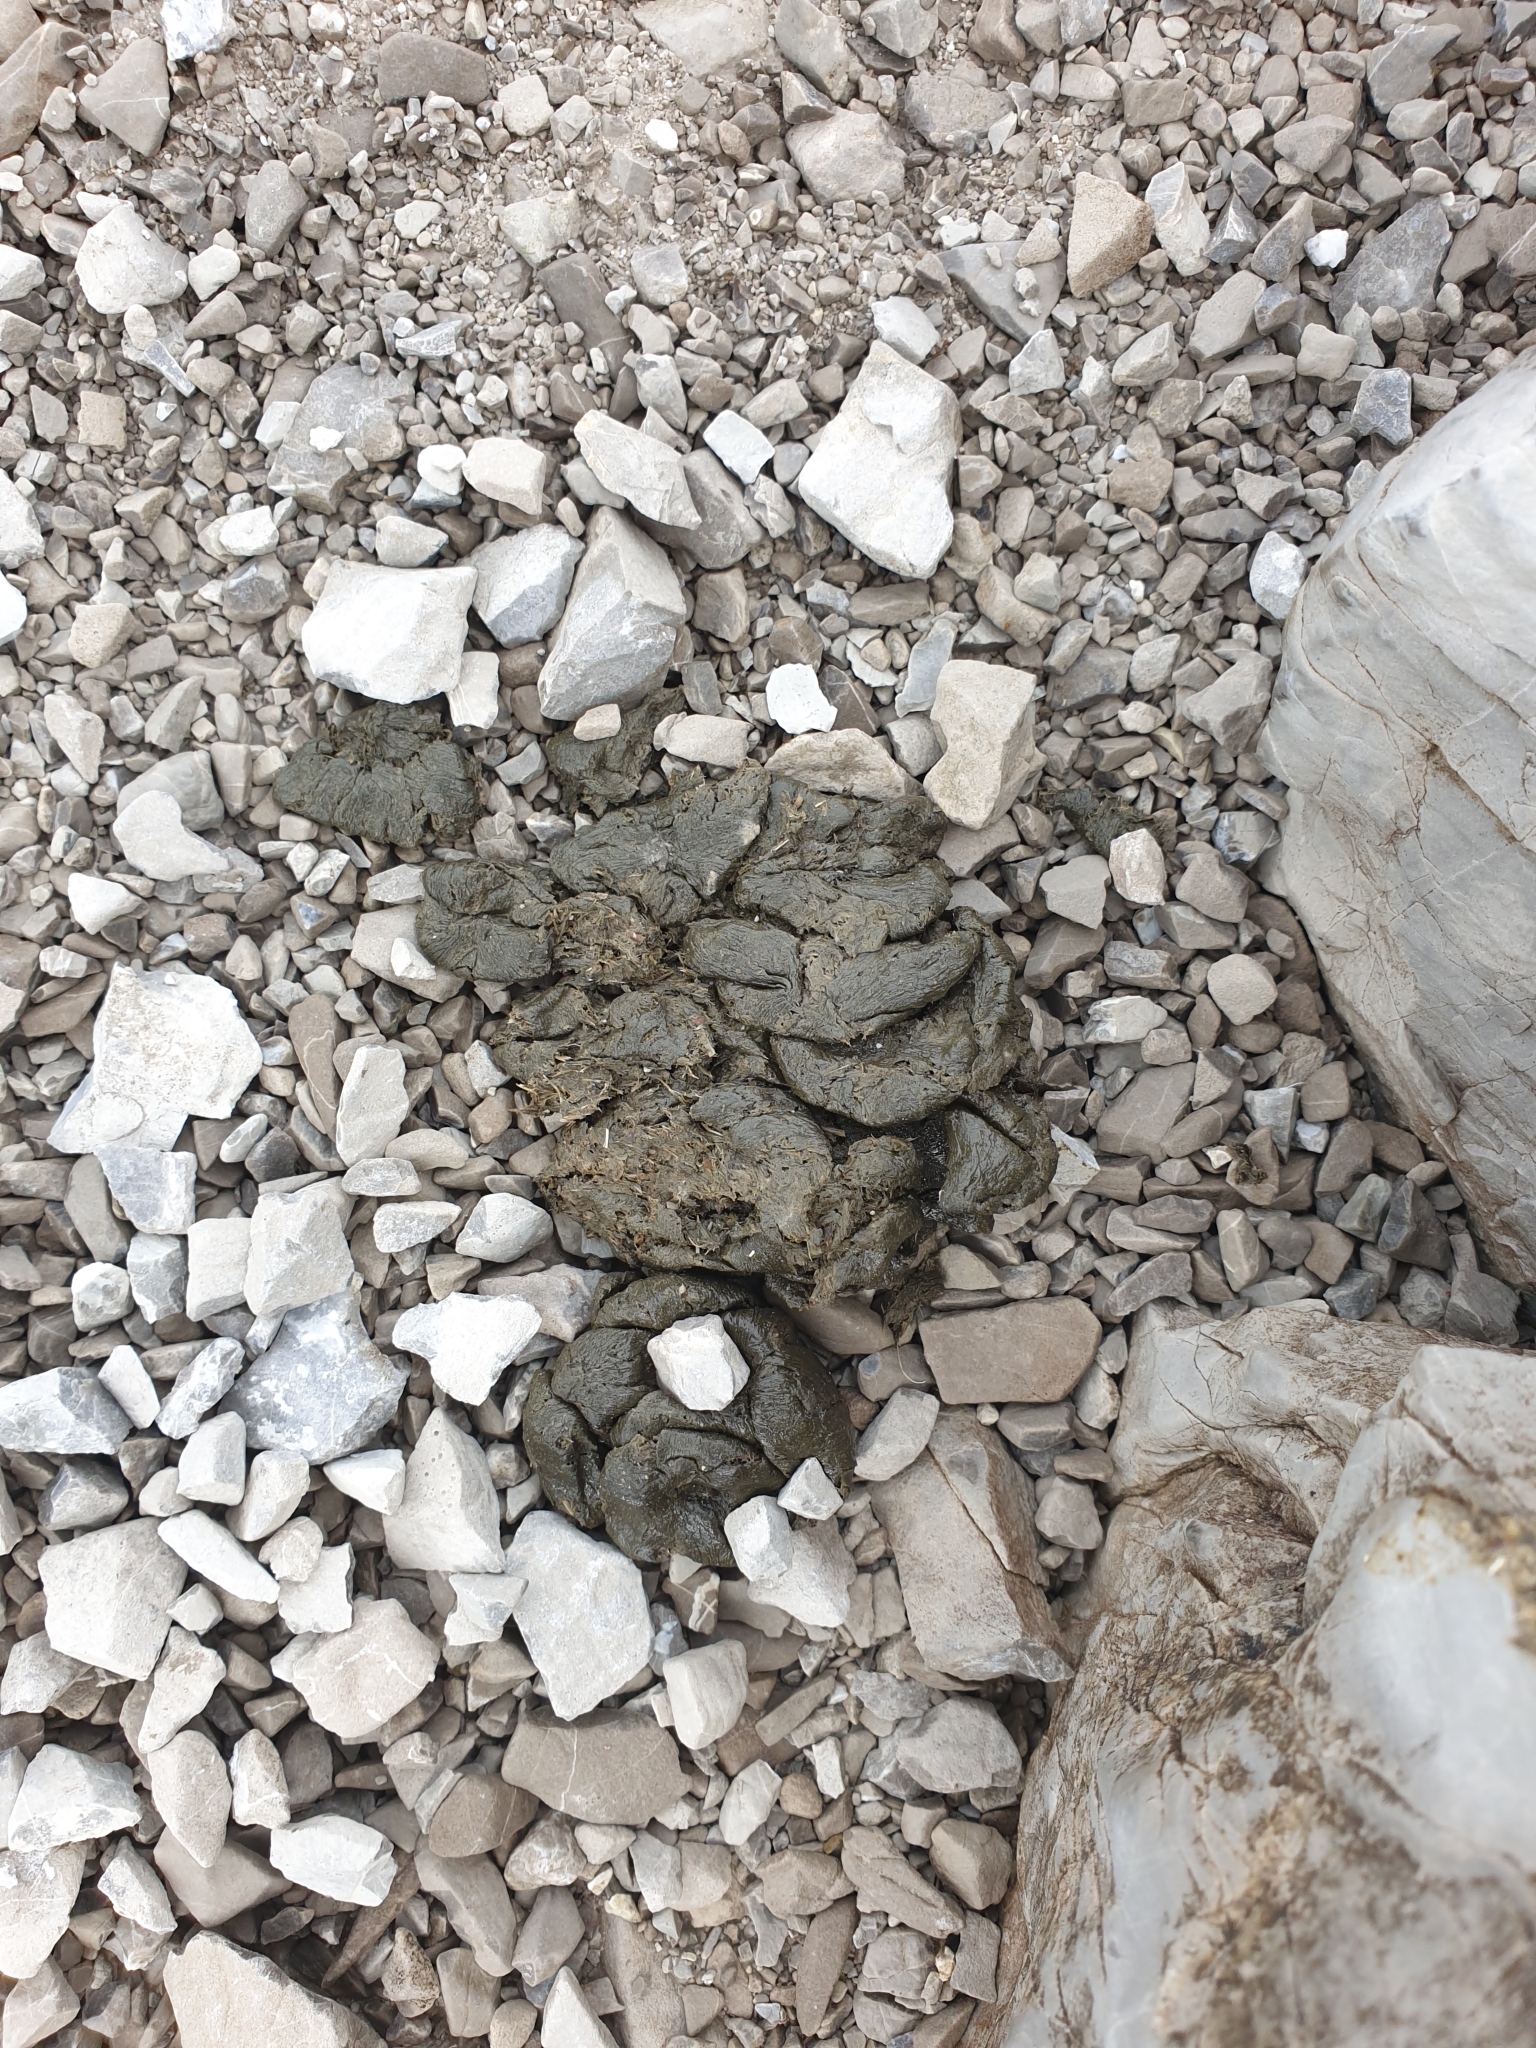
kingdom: Animalia
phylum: Chordata
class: Mammalia
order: Artiodactyla
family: Bovidae
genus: Capra
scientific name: Capra ibex
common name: Alpine ibex
